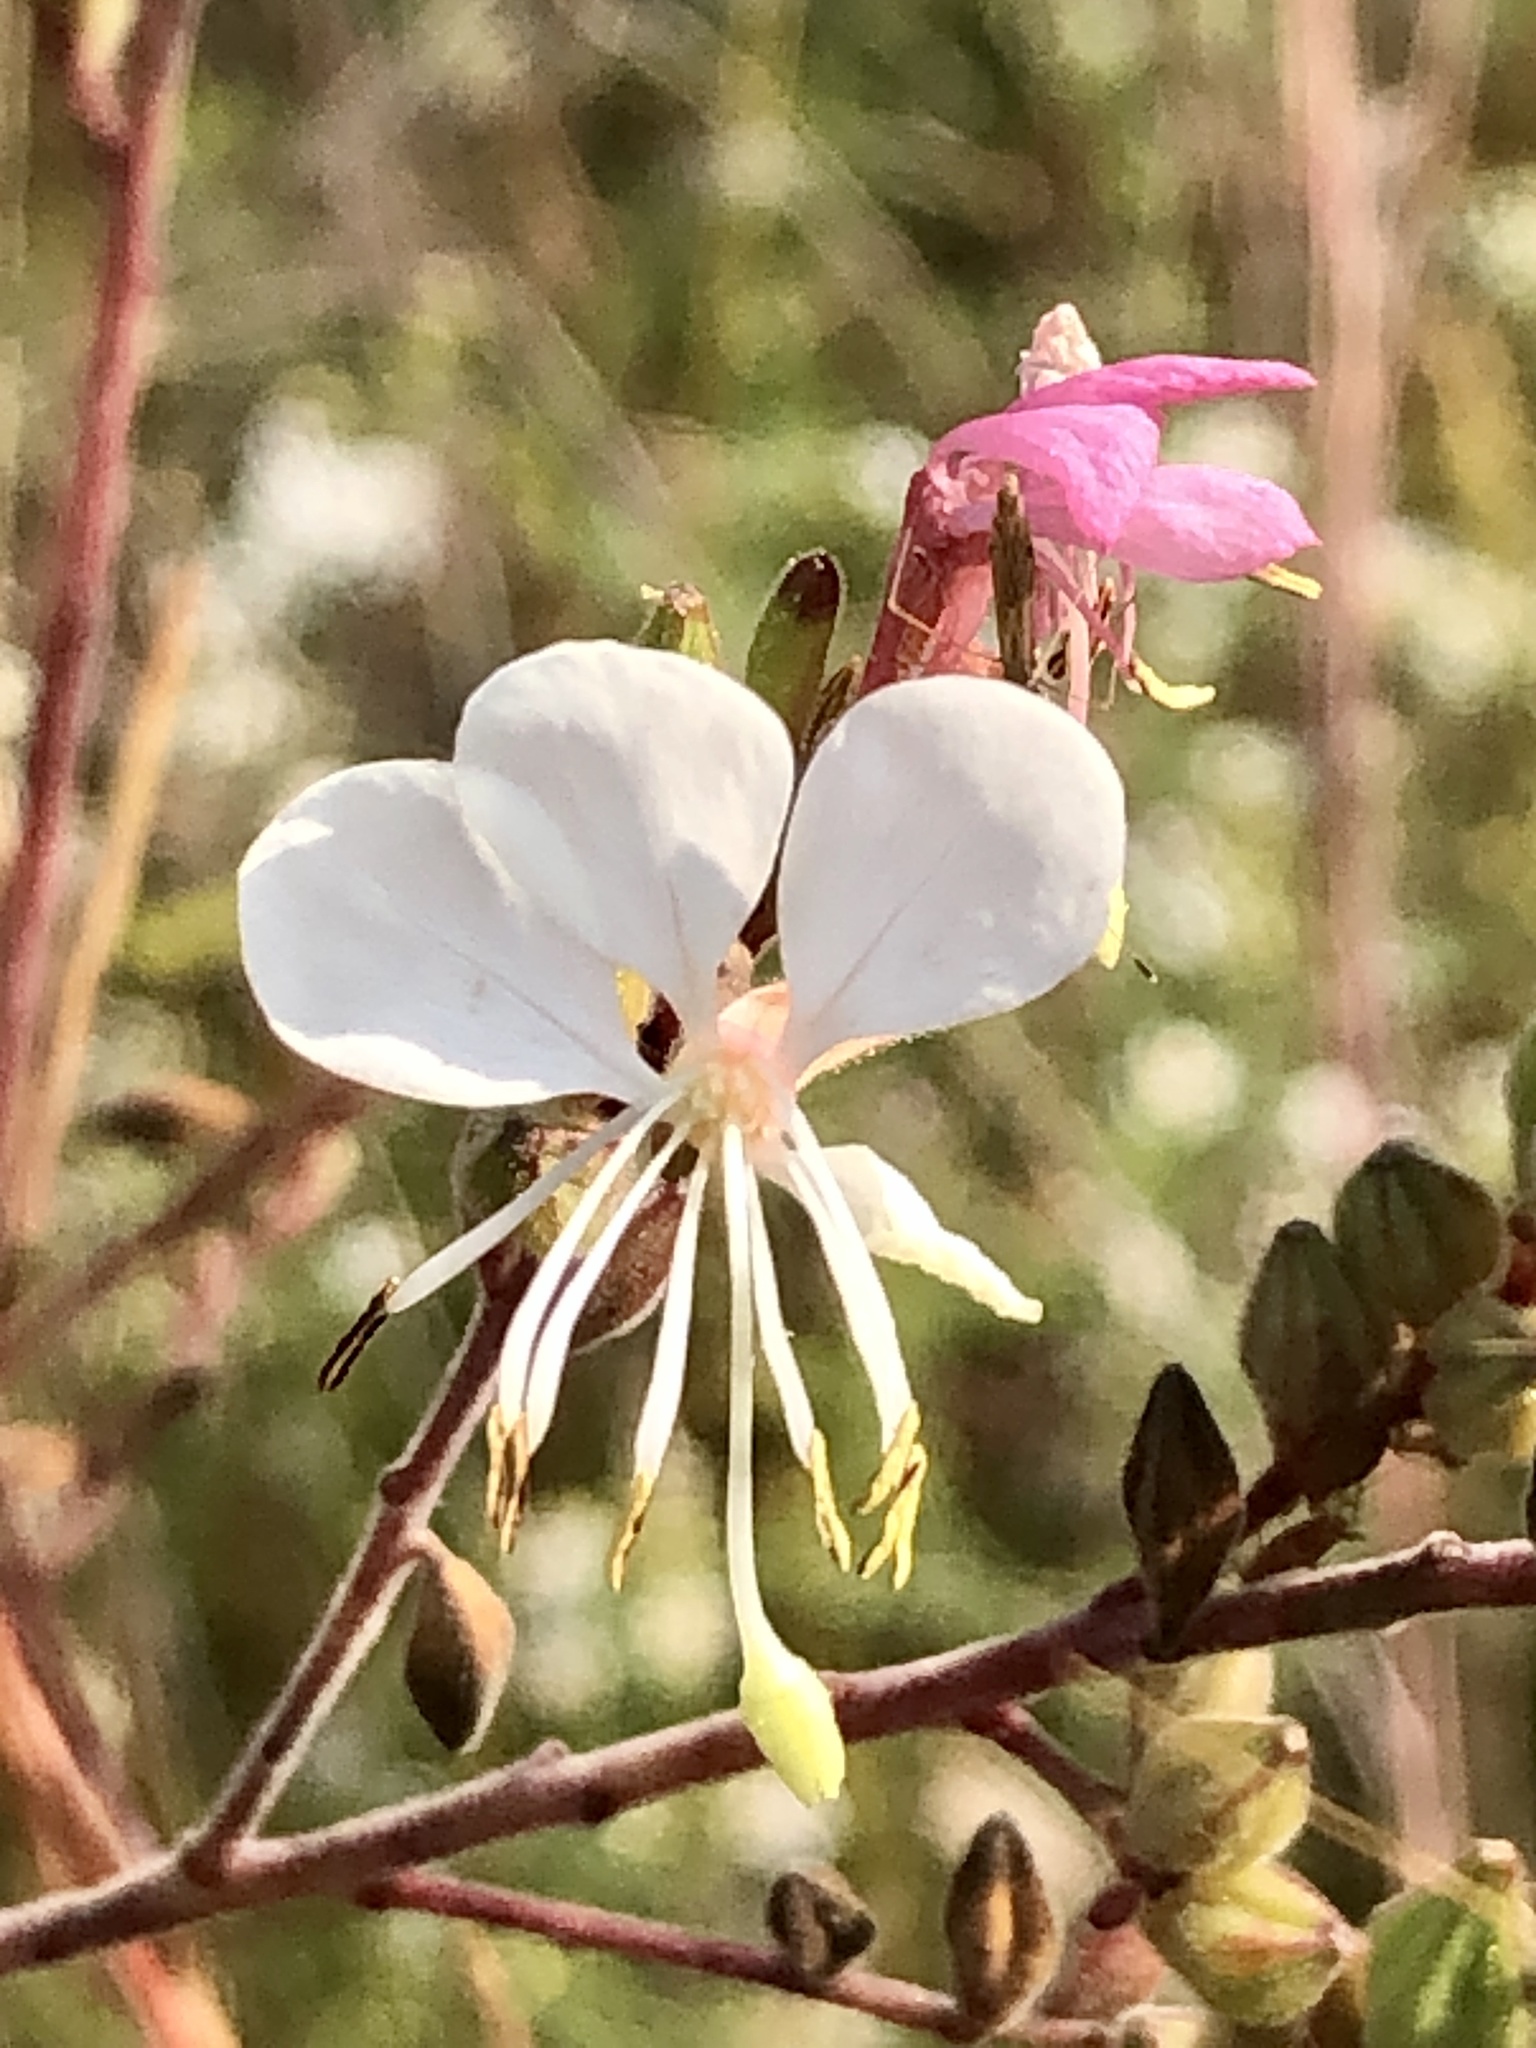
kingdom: Plantae
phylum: Tracheophyta
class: Magnoliopsida
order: Myrtales
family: Onagraceae
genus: Oenothera
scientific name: Oenothera gaura
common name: Biennial beeblossom
